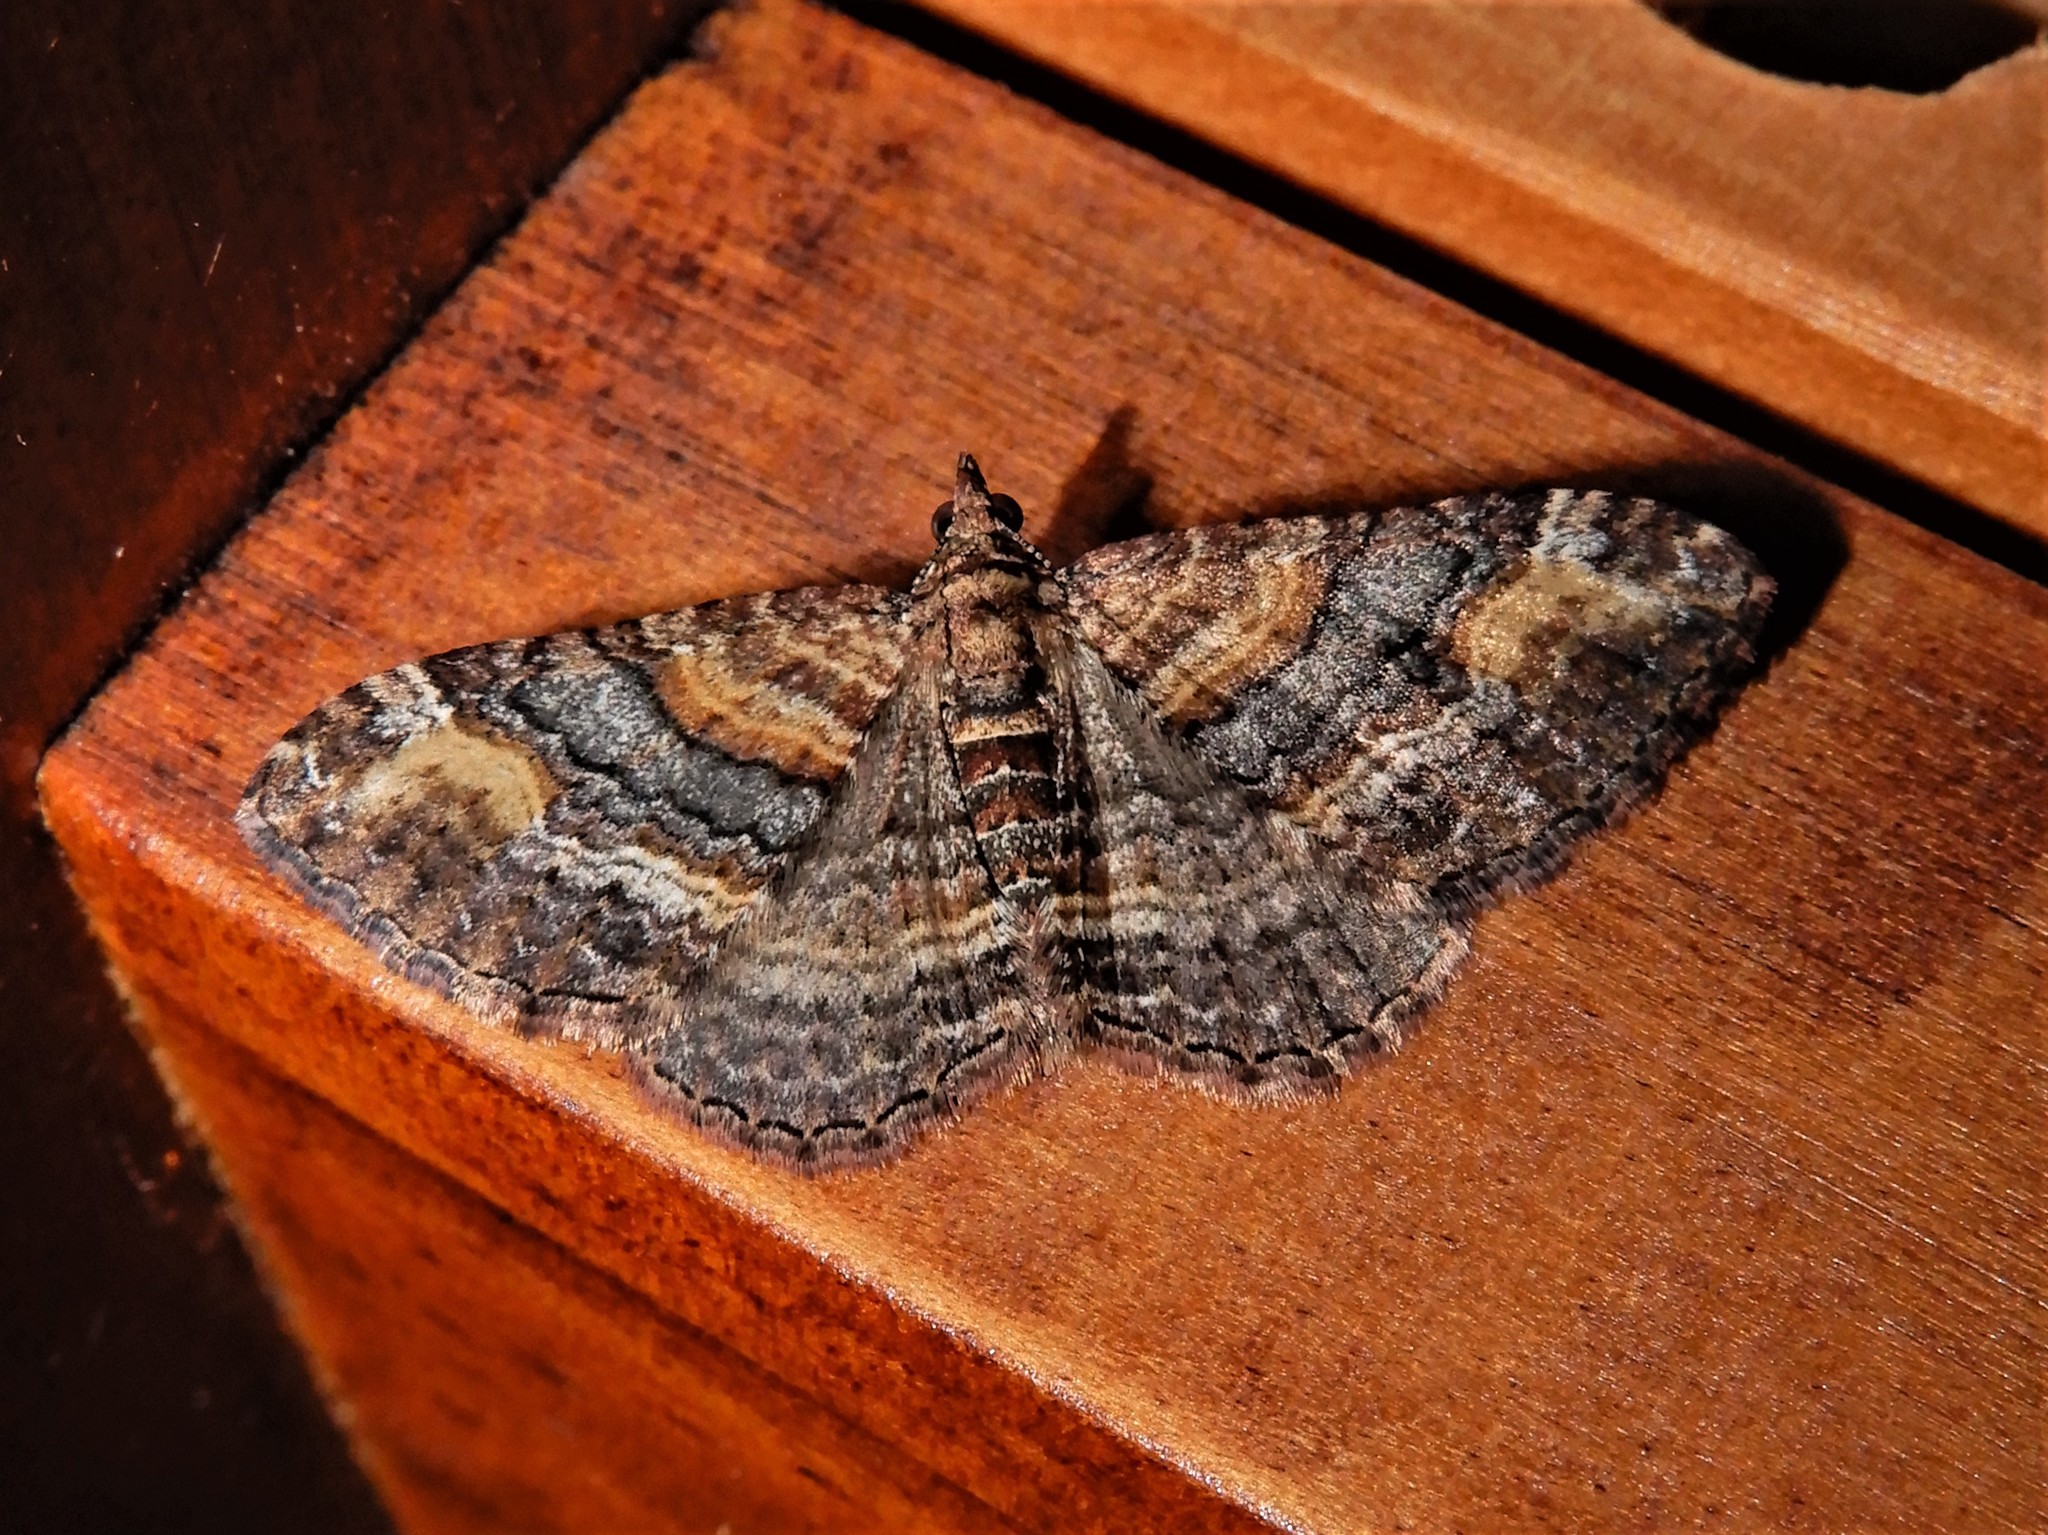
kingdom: Animalia
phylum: Arthropoda
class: Insecta
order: Lepidoptera
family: Geometridae
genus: Epyaxa
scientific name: Epyaxa lucidata
